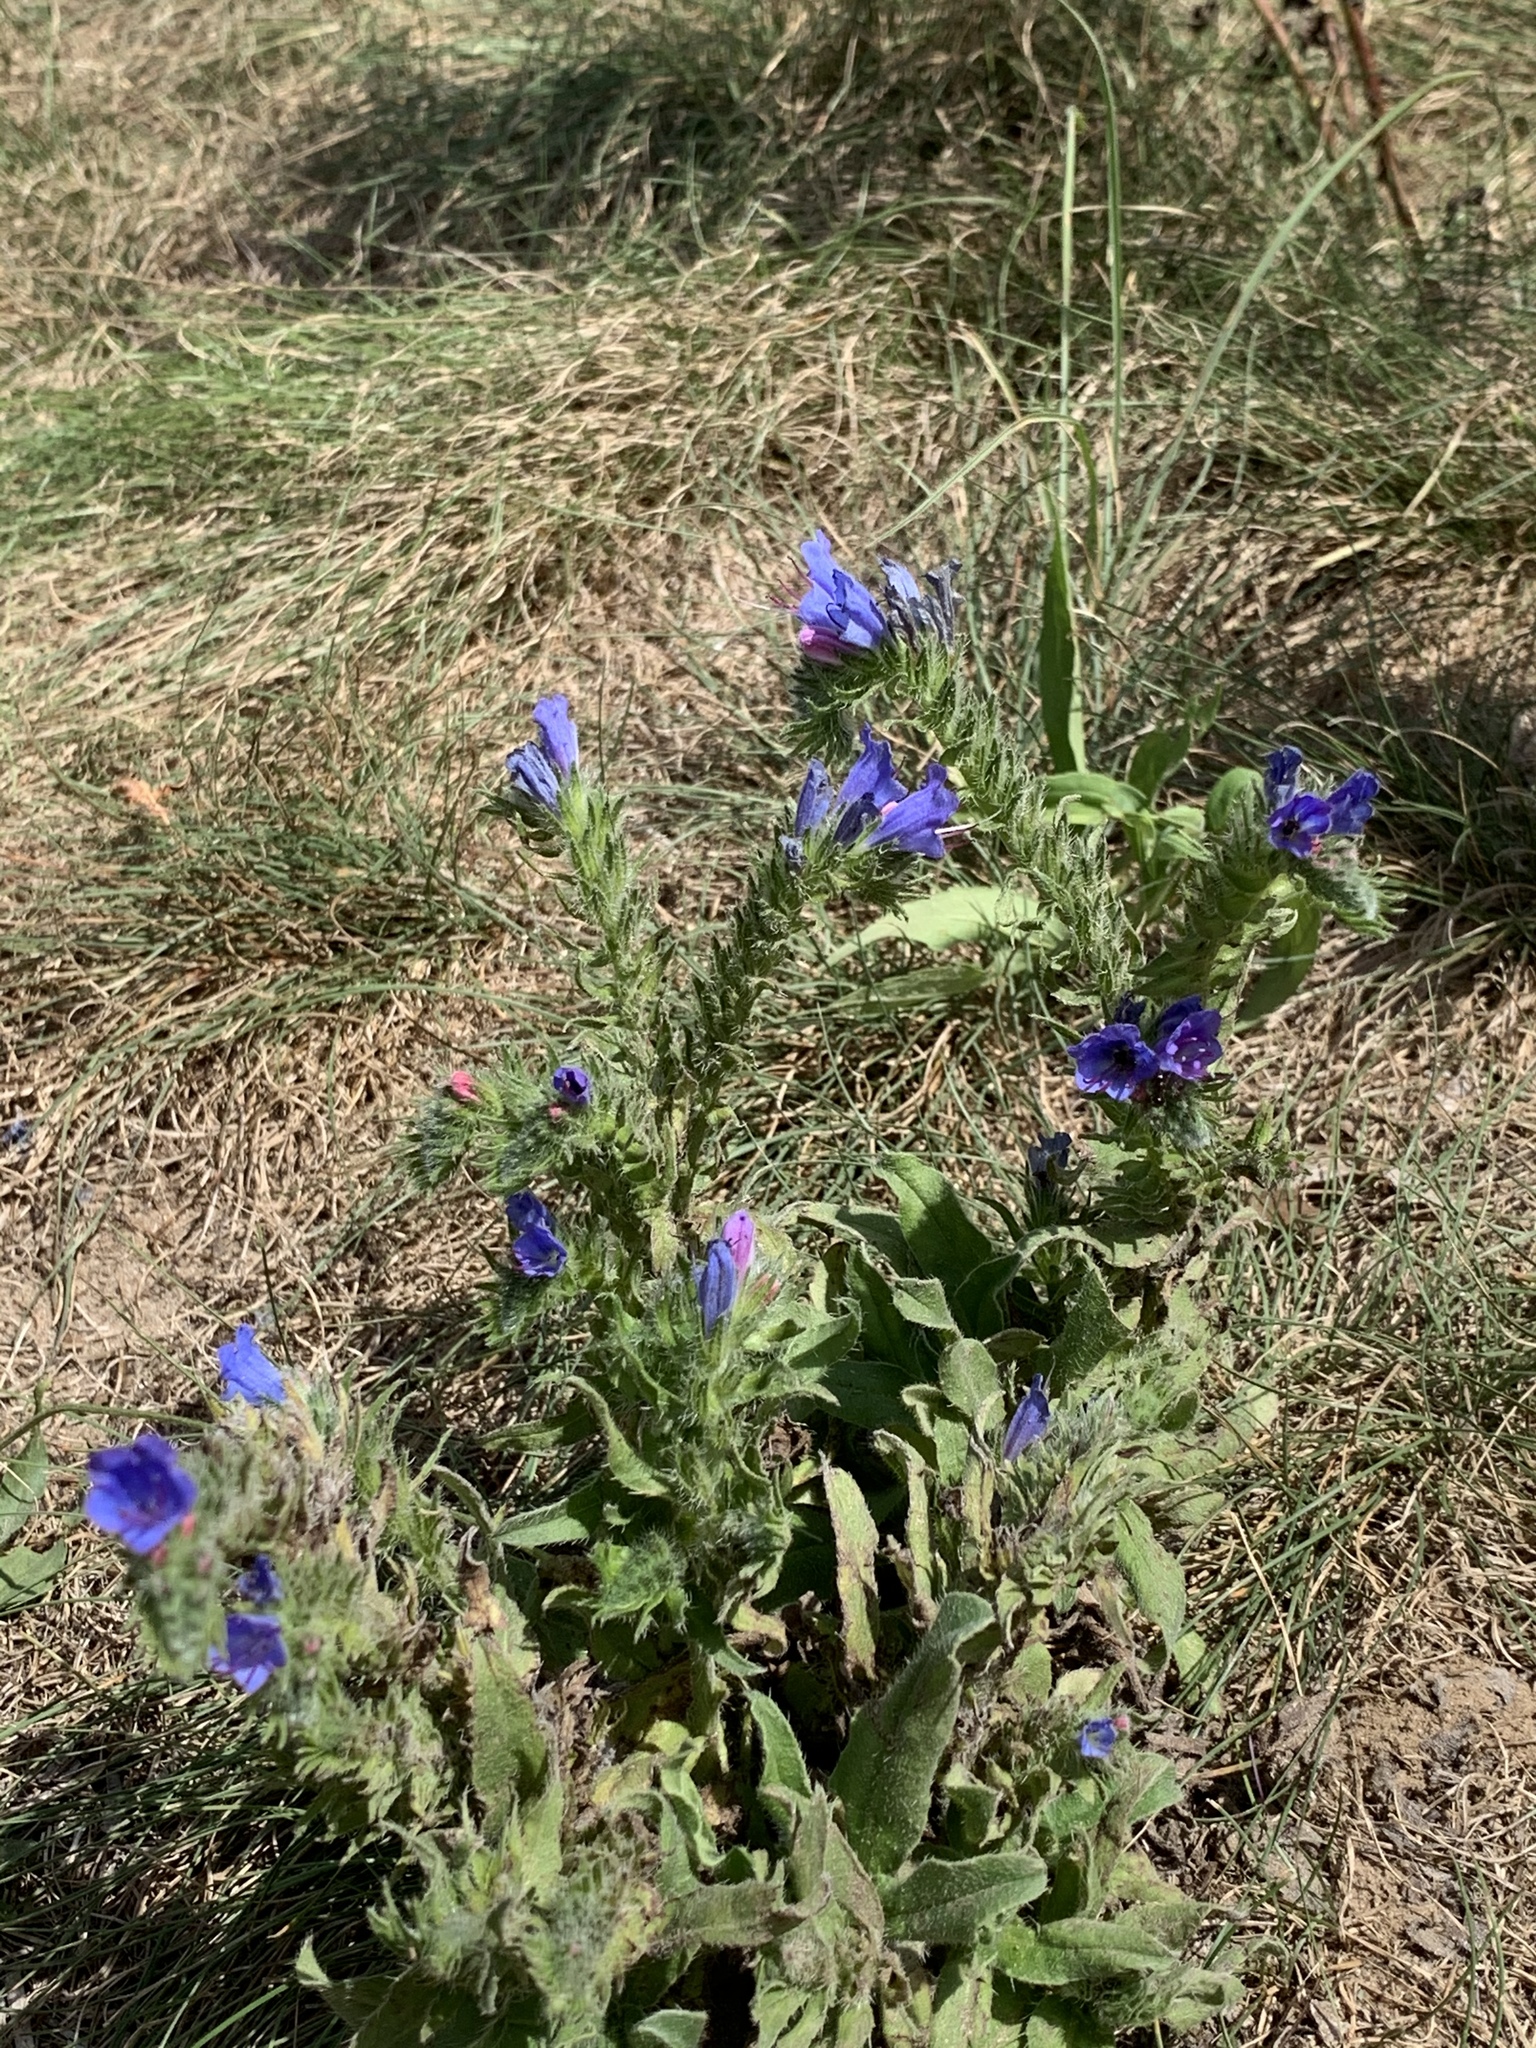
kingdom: Plantae
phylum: Tracheophyta
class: Magnoliopsida
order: Boraginales
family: Boraginaceae
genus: Echium
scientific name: Echium vulgare
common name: Common viper's bugloss
